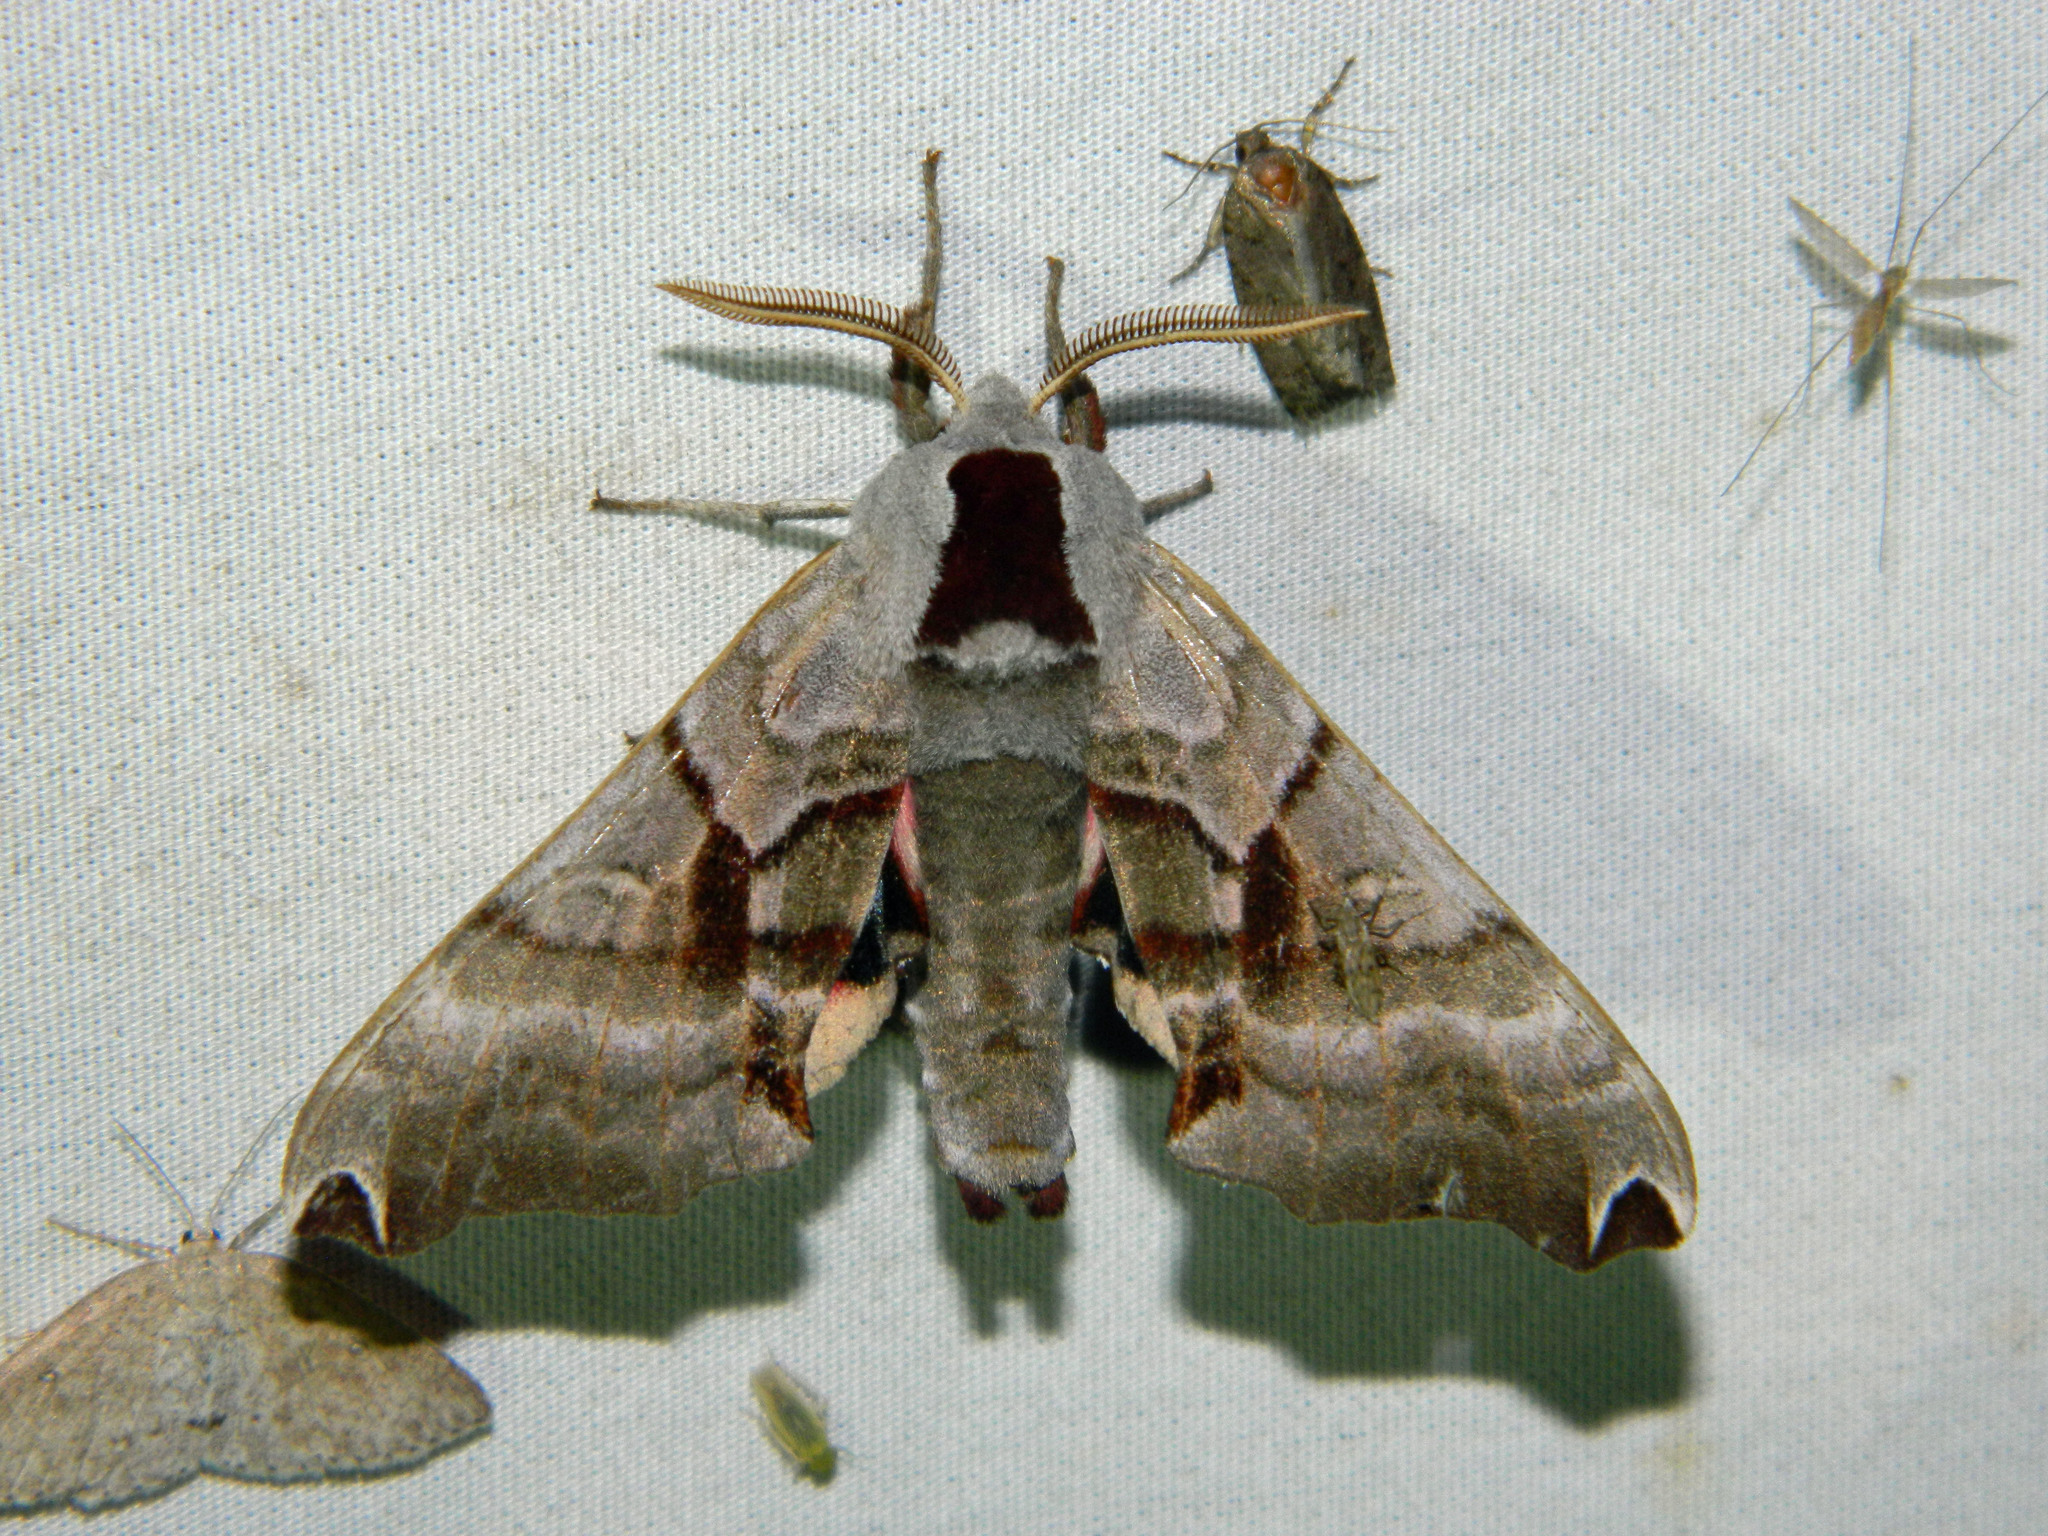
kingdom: Animalia
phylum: Arthropoda
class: Insecta
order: Lepidoptera
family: Sphingidae
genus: Smerinthus
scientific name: Smerinthus jamaicensis
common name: Twin spotted sphinx
